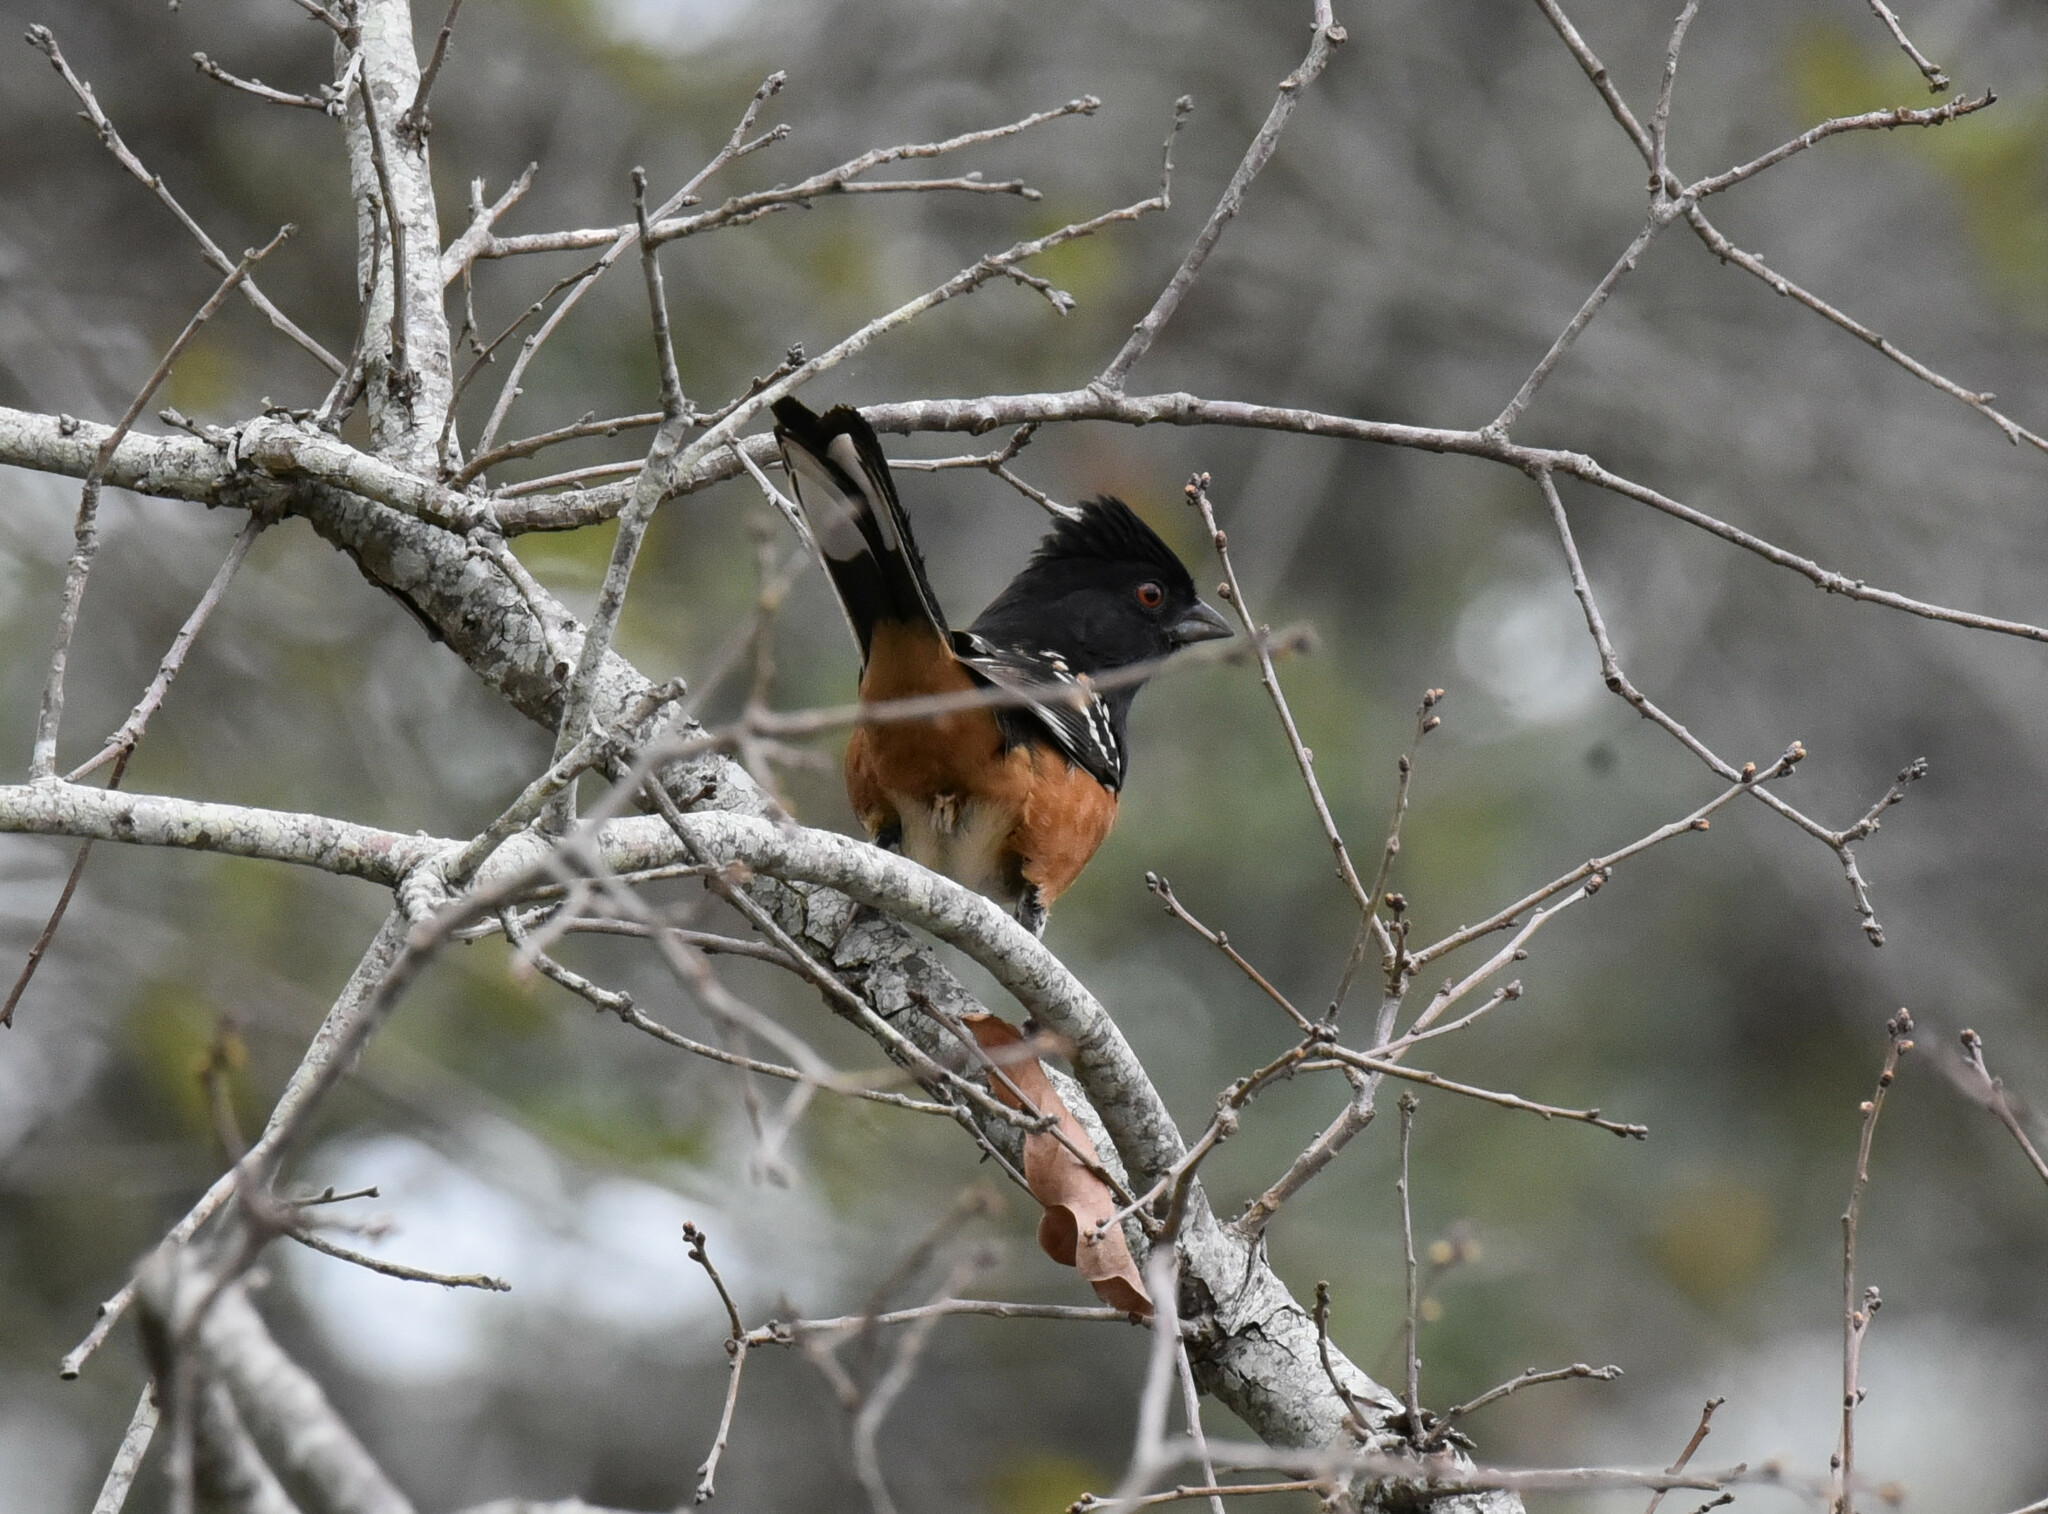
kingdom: Animalia
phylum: Chordata
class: Aves
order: Passeriformes
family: Passerellidae
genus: Pipilo
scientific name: Pipilo maculatus
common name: Spotted towhee
